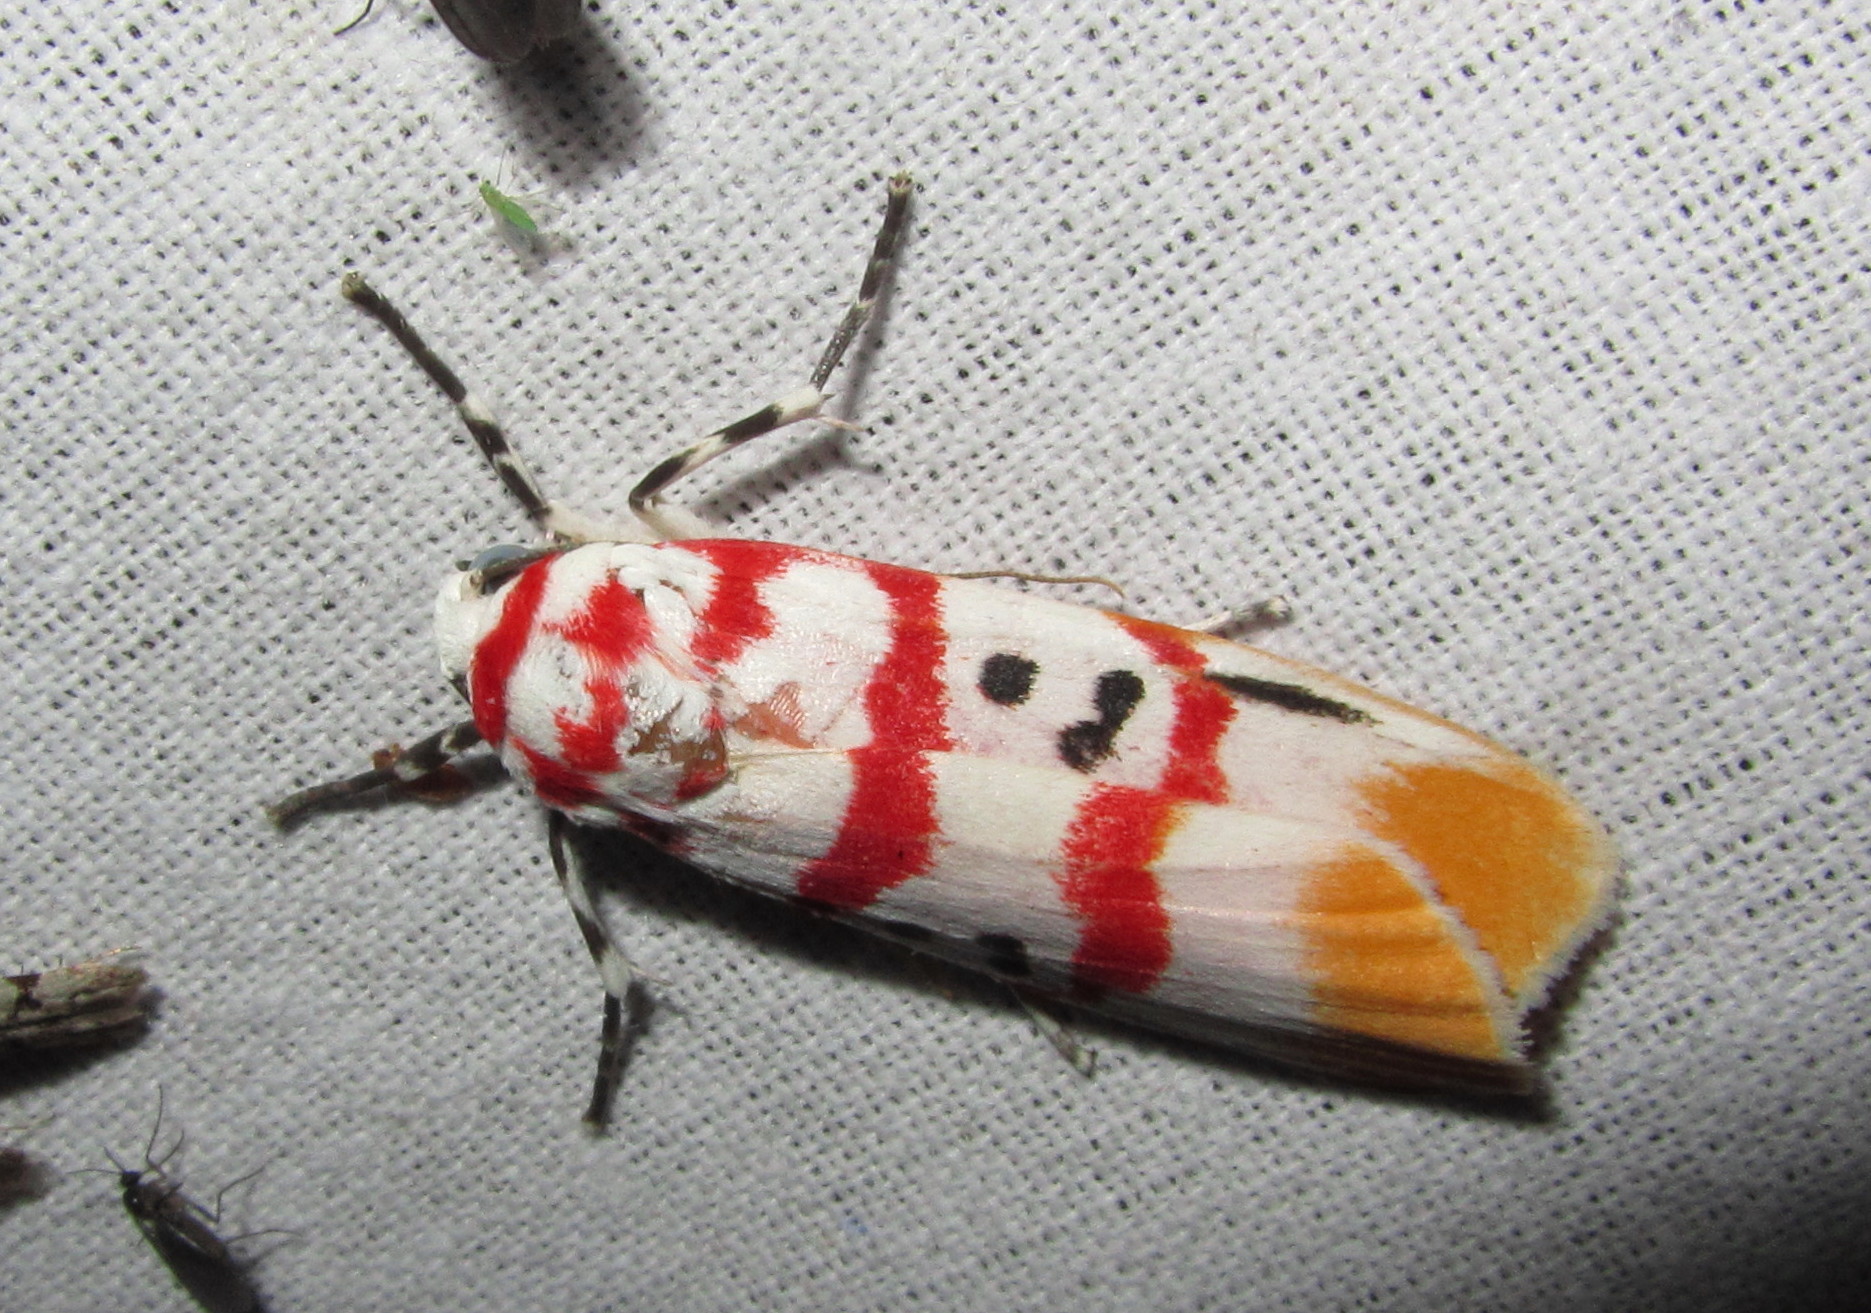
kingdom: Animalia
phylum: Arthropoda
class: Insecta
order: Lepidoptera
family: Erebidae
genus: Cyana
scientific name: Cyana bellissima
